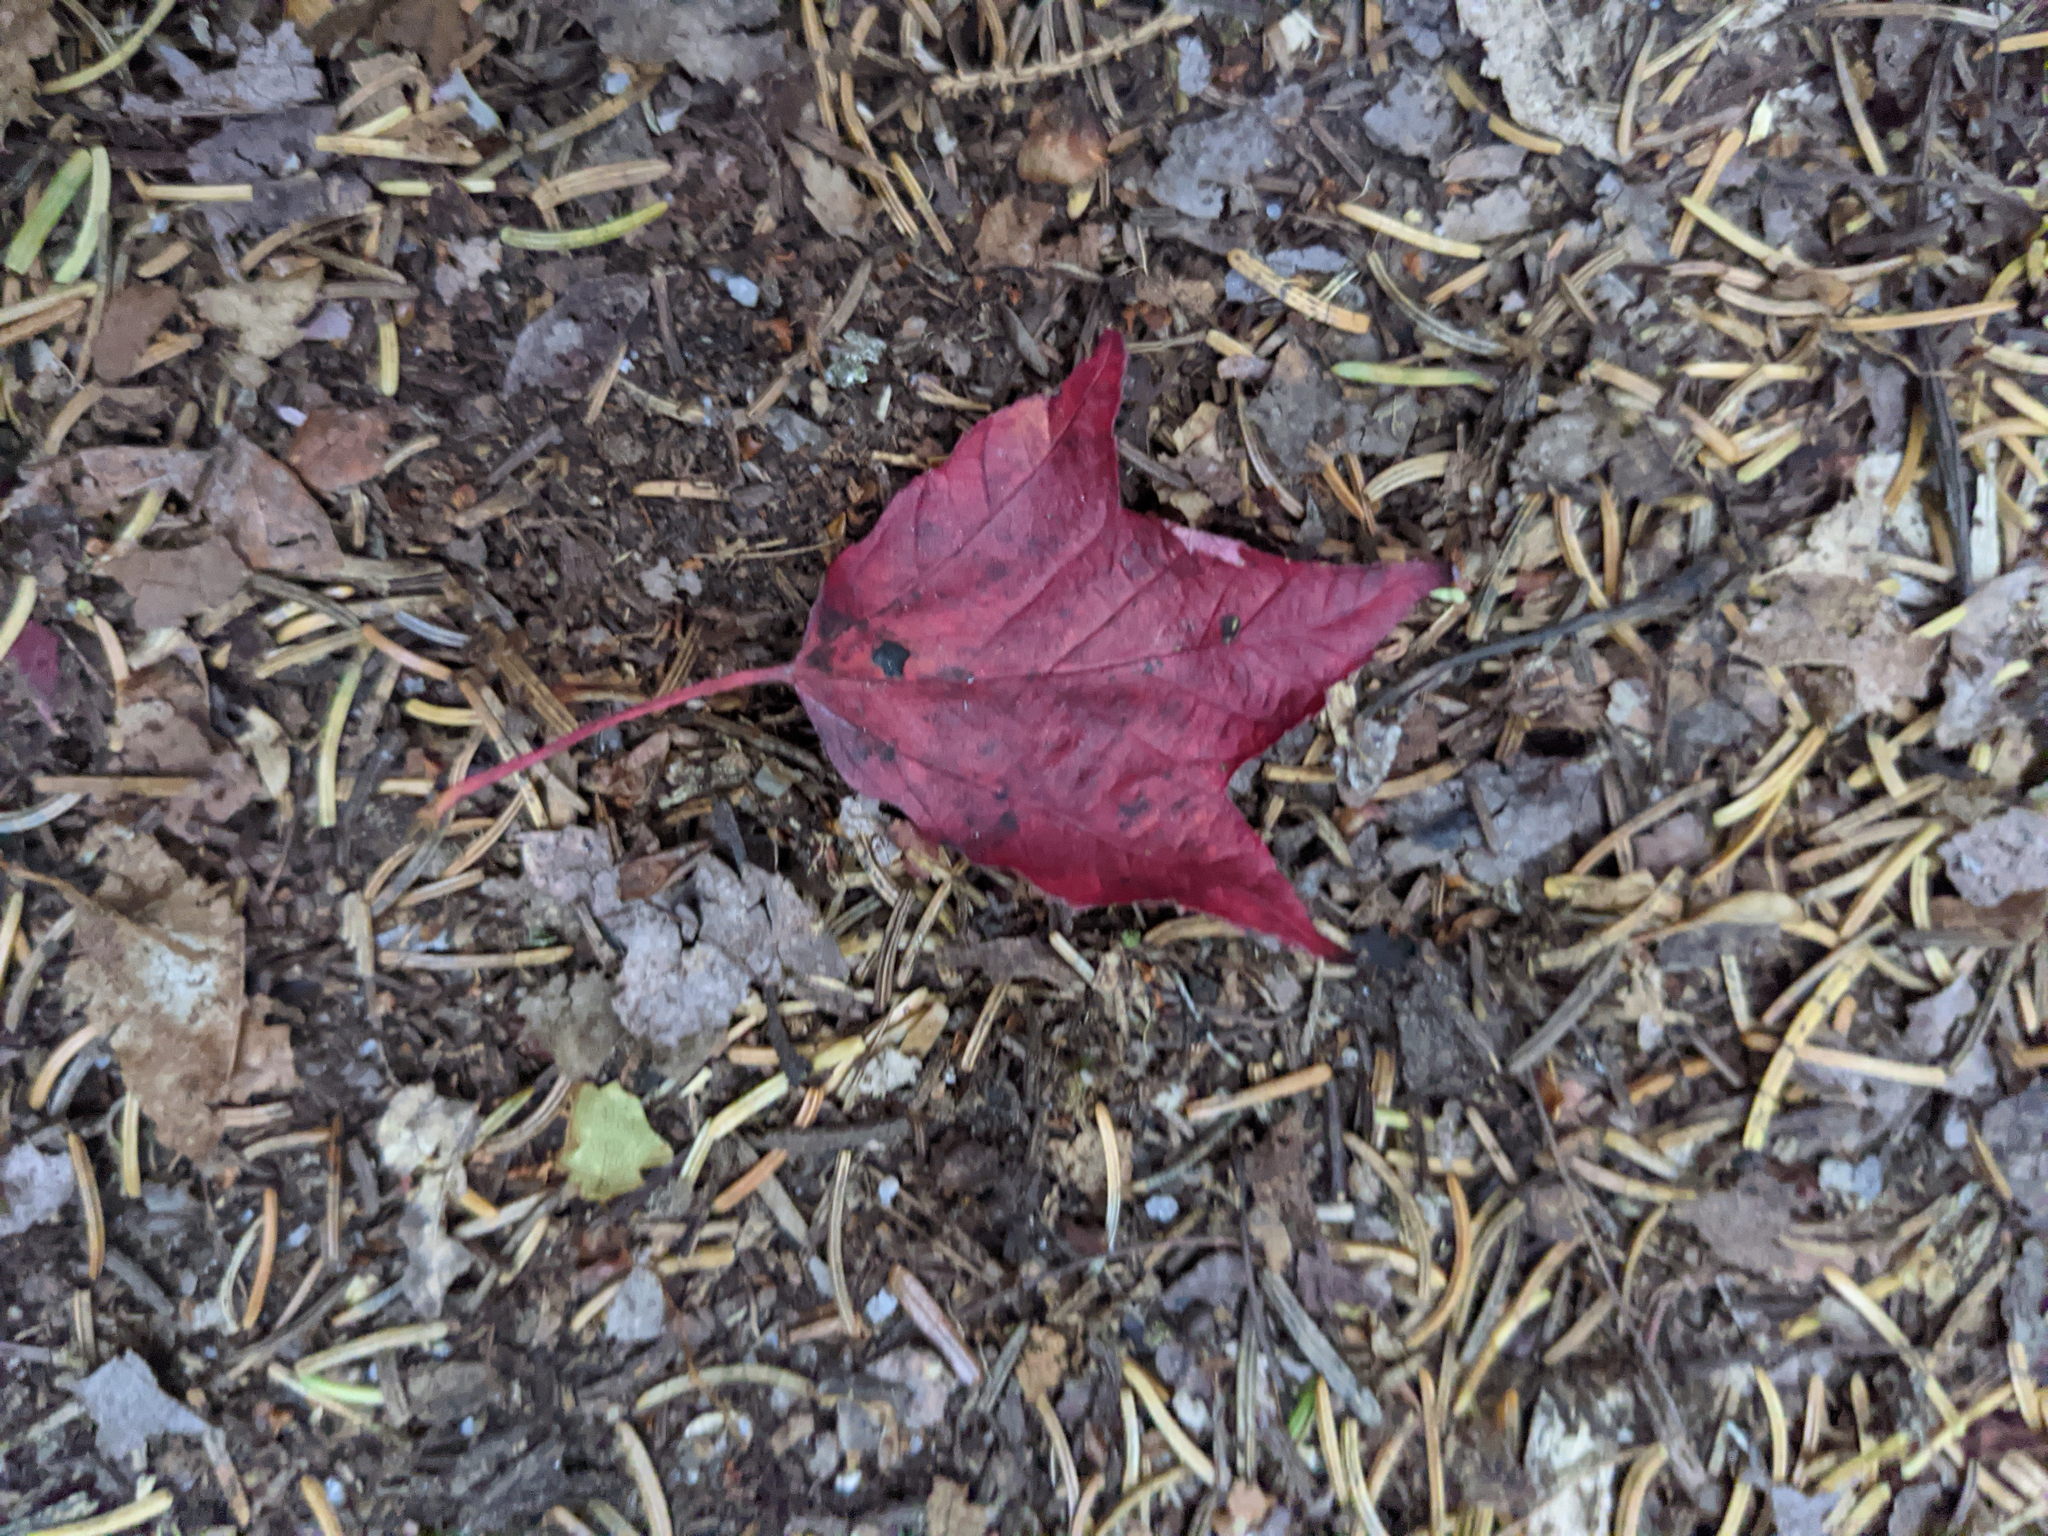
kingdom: Plantae
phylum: Tracheophyta
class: Magnoliopsida
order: Sapindales
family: Sapindaceae
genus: Acer
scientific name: Acer rubrum
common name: Red maple
